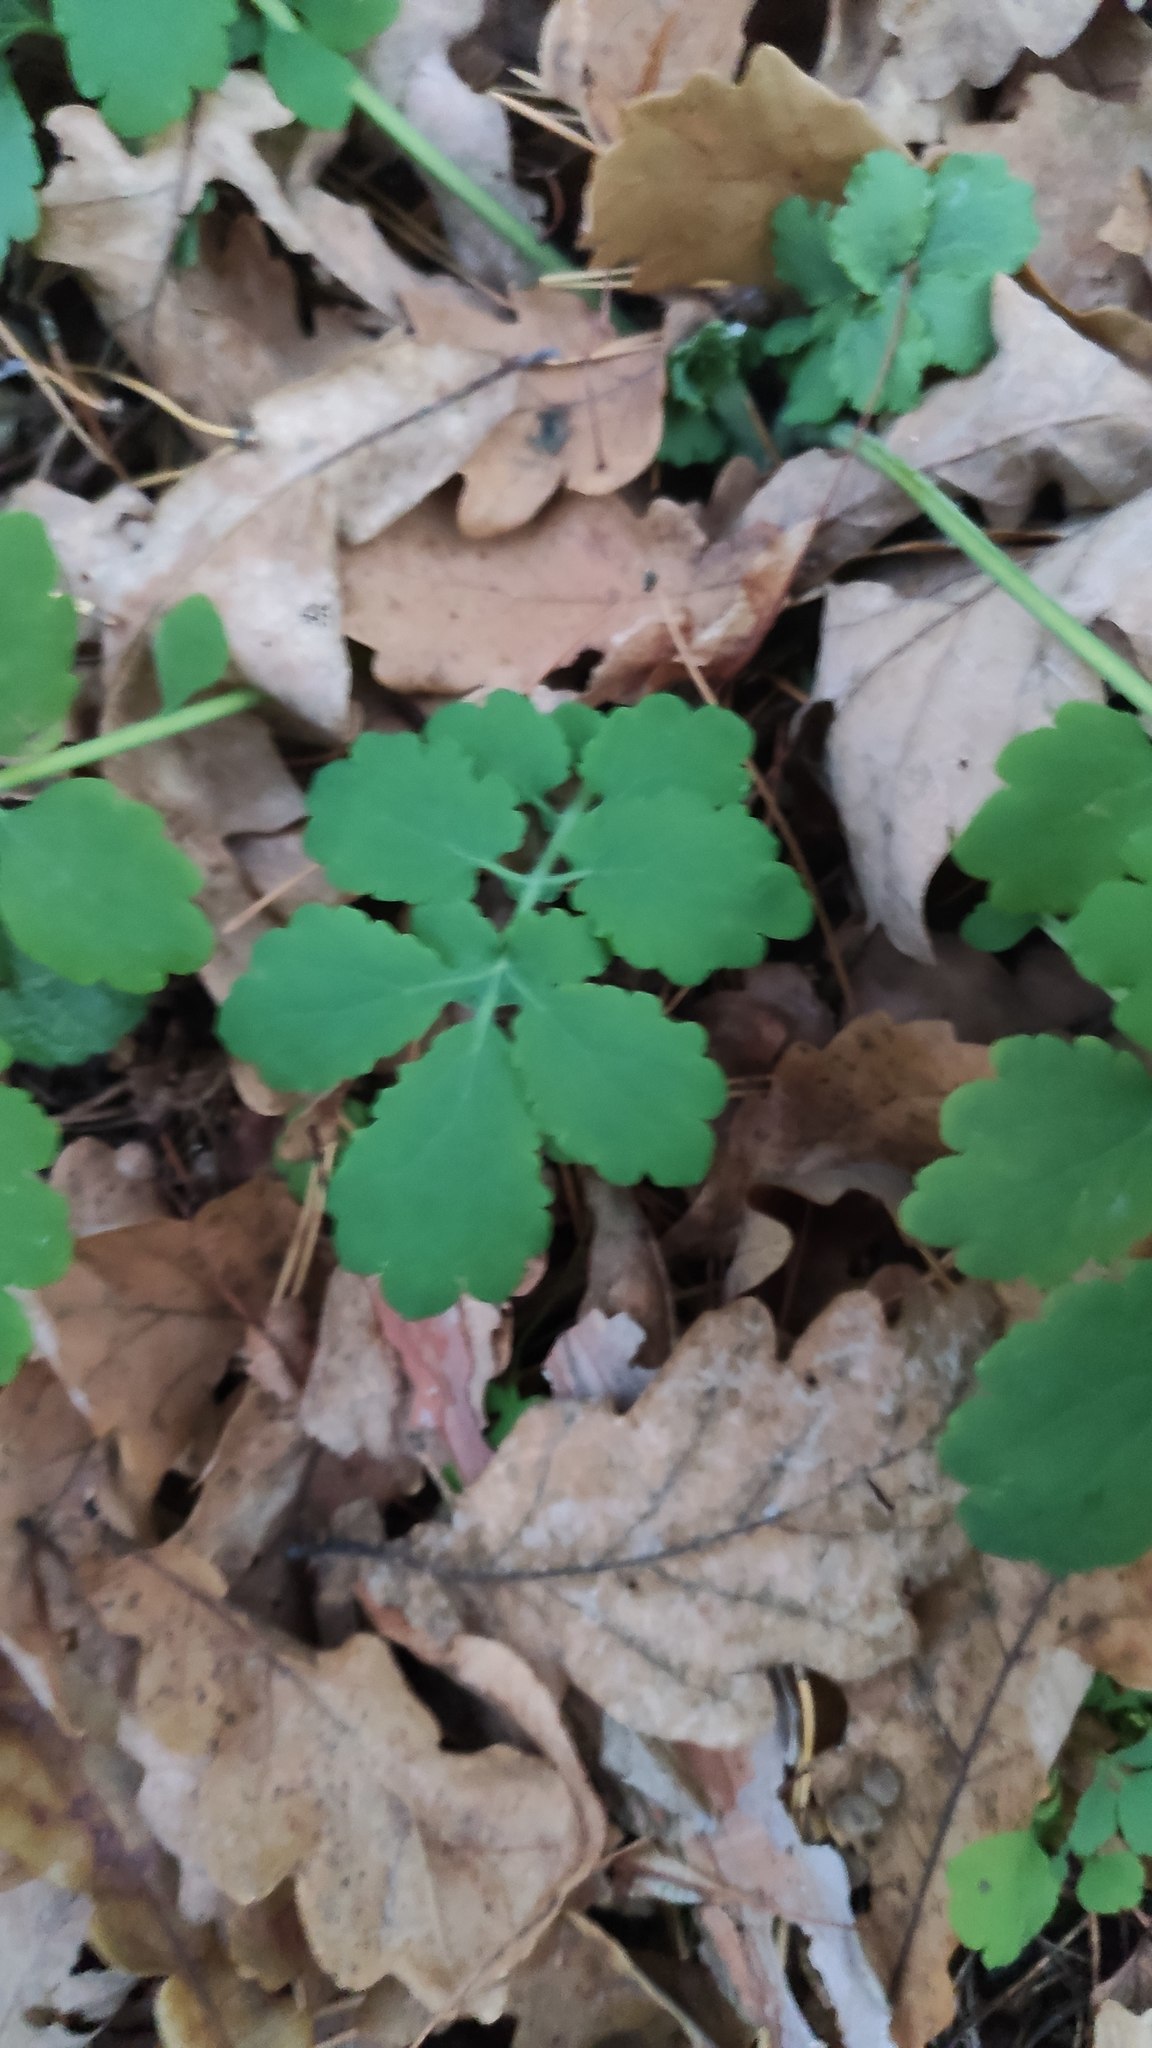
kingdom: Plantae
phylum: Tracheophyta
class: Magnoliopsida
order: Ranunculales
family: Papaveraceae
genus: Chelidonium
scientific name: Chelidonium majus
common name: Greater celandine
